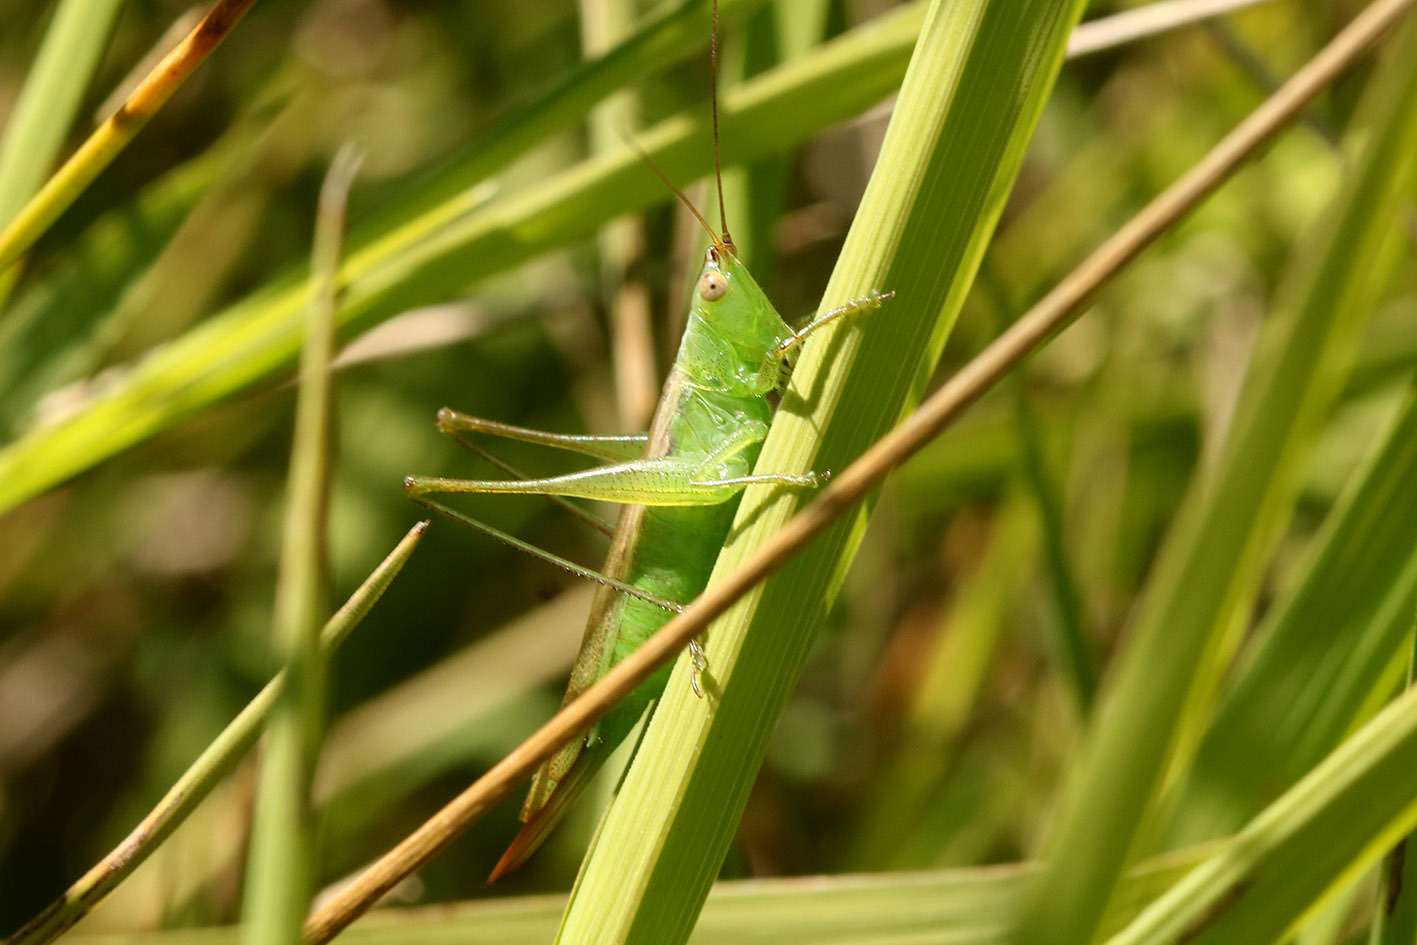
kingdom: Animalia
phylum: Arthropoda
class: Insecta
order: Orthoptera
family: Tettigoniidae
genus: Conocephalus
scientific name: Conocephalus longipes
